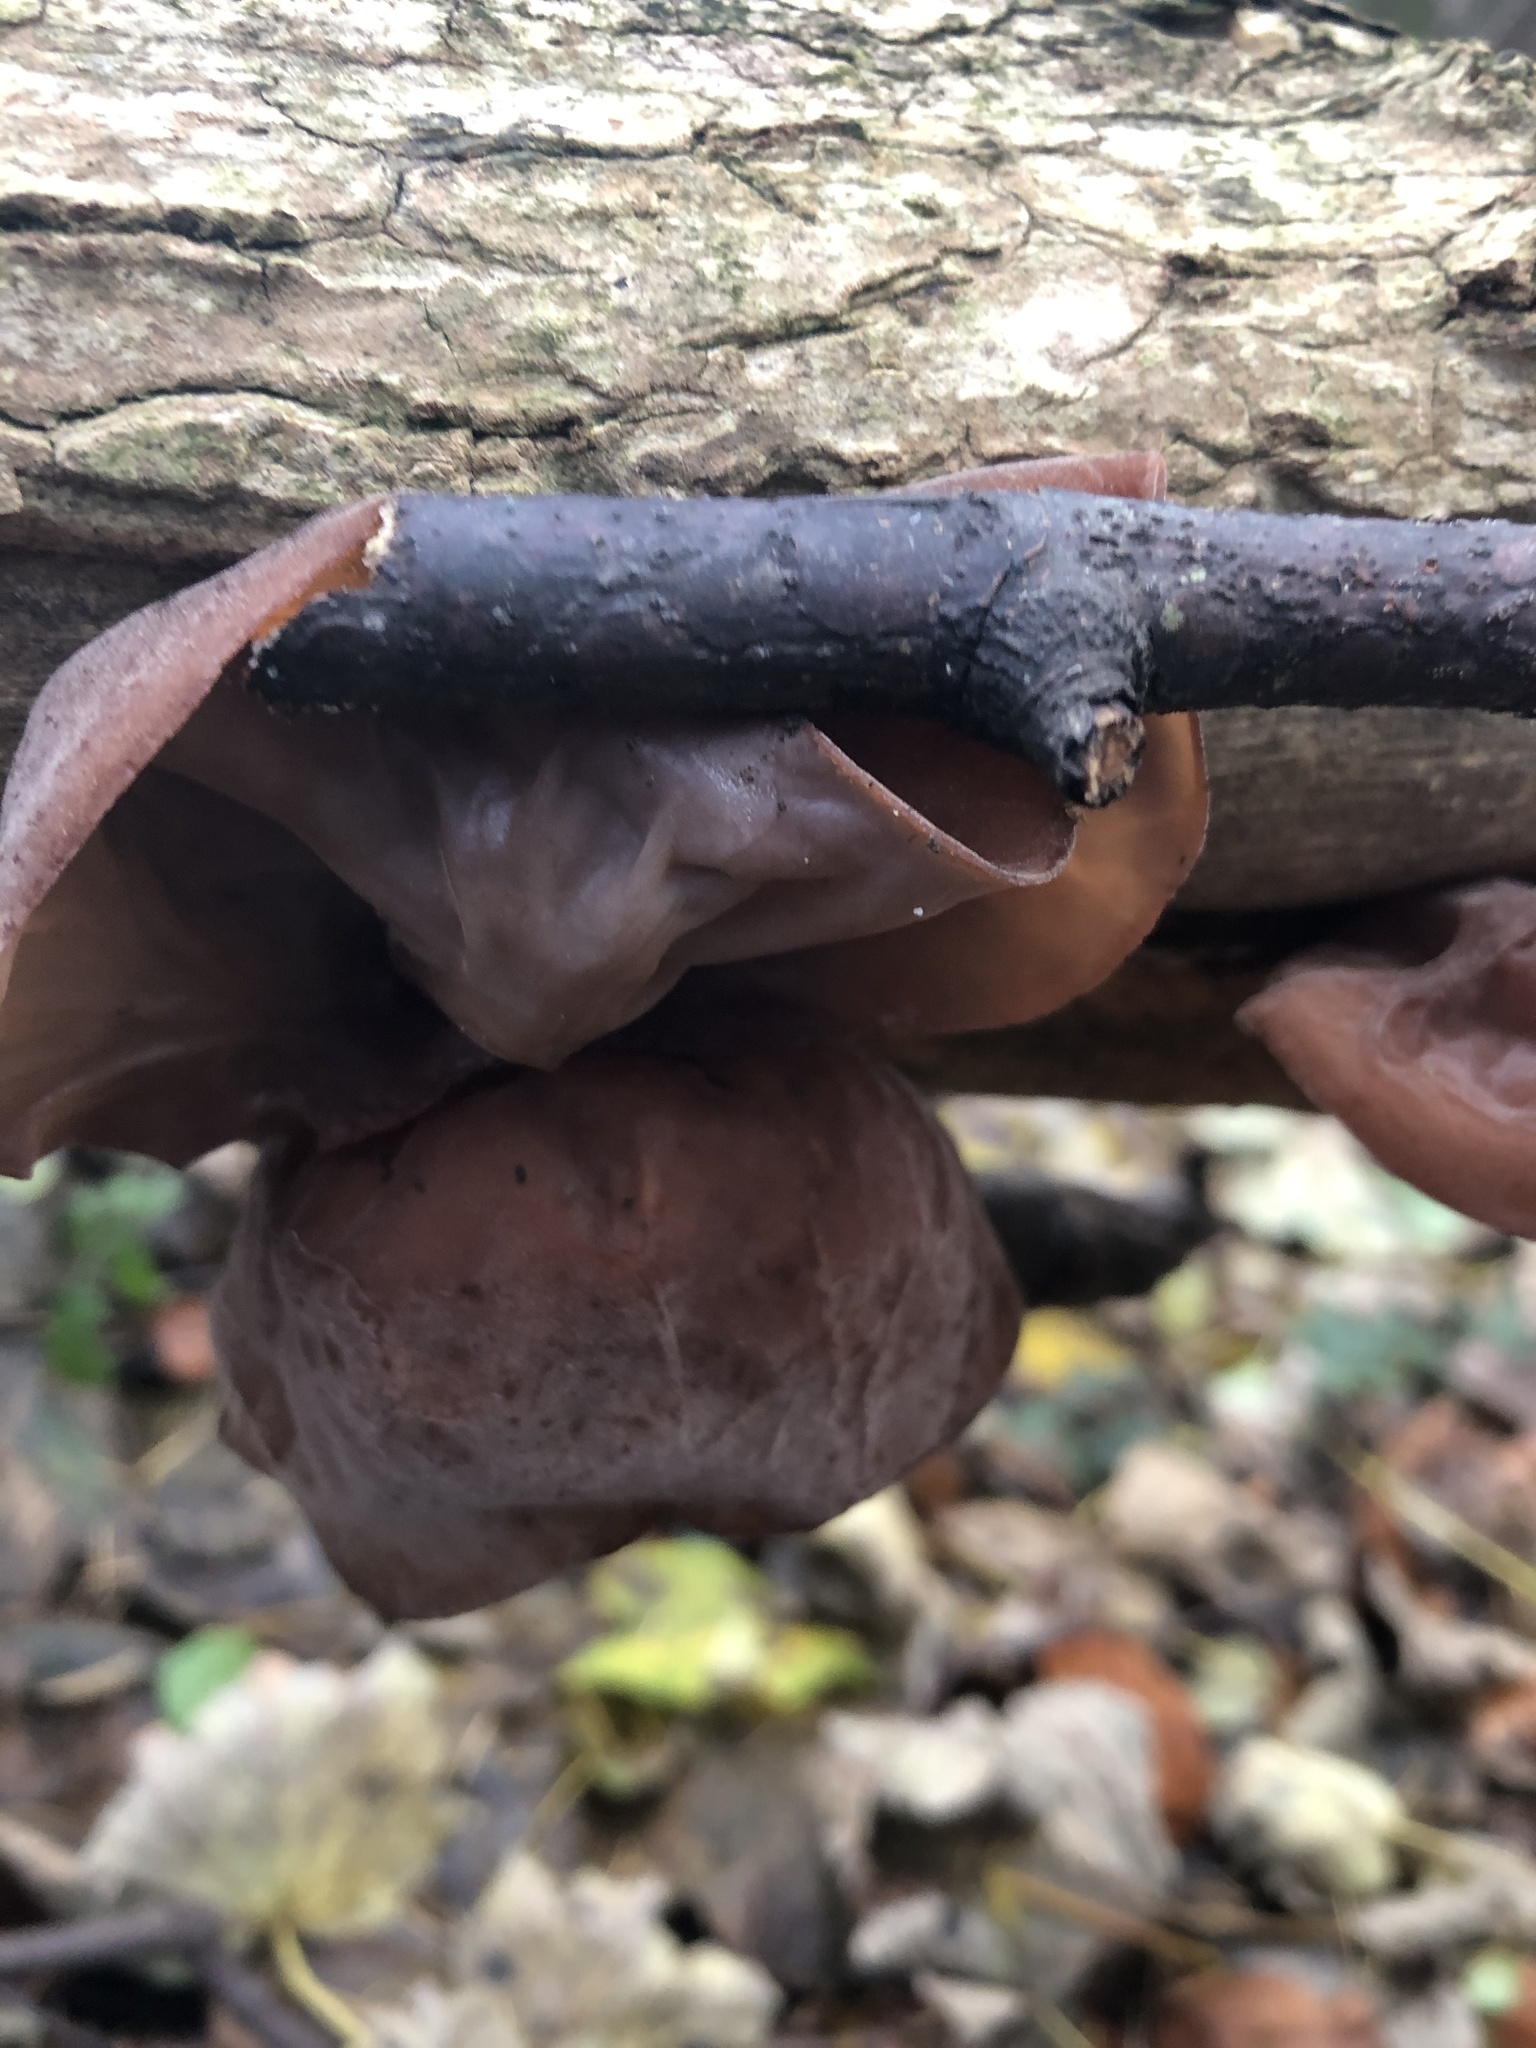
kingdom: Fungi
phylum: Basidiomycota
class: Agaricomycetes
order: Auriculariales
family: Auriculariaceae
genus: Auricularia
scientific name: Auricularia auricula-judae
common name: Jelly ear
